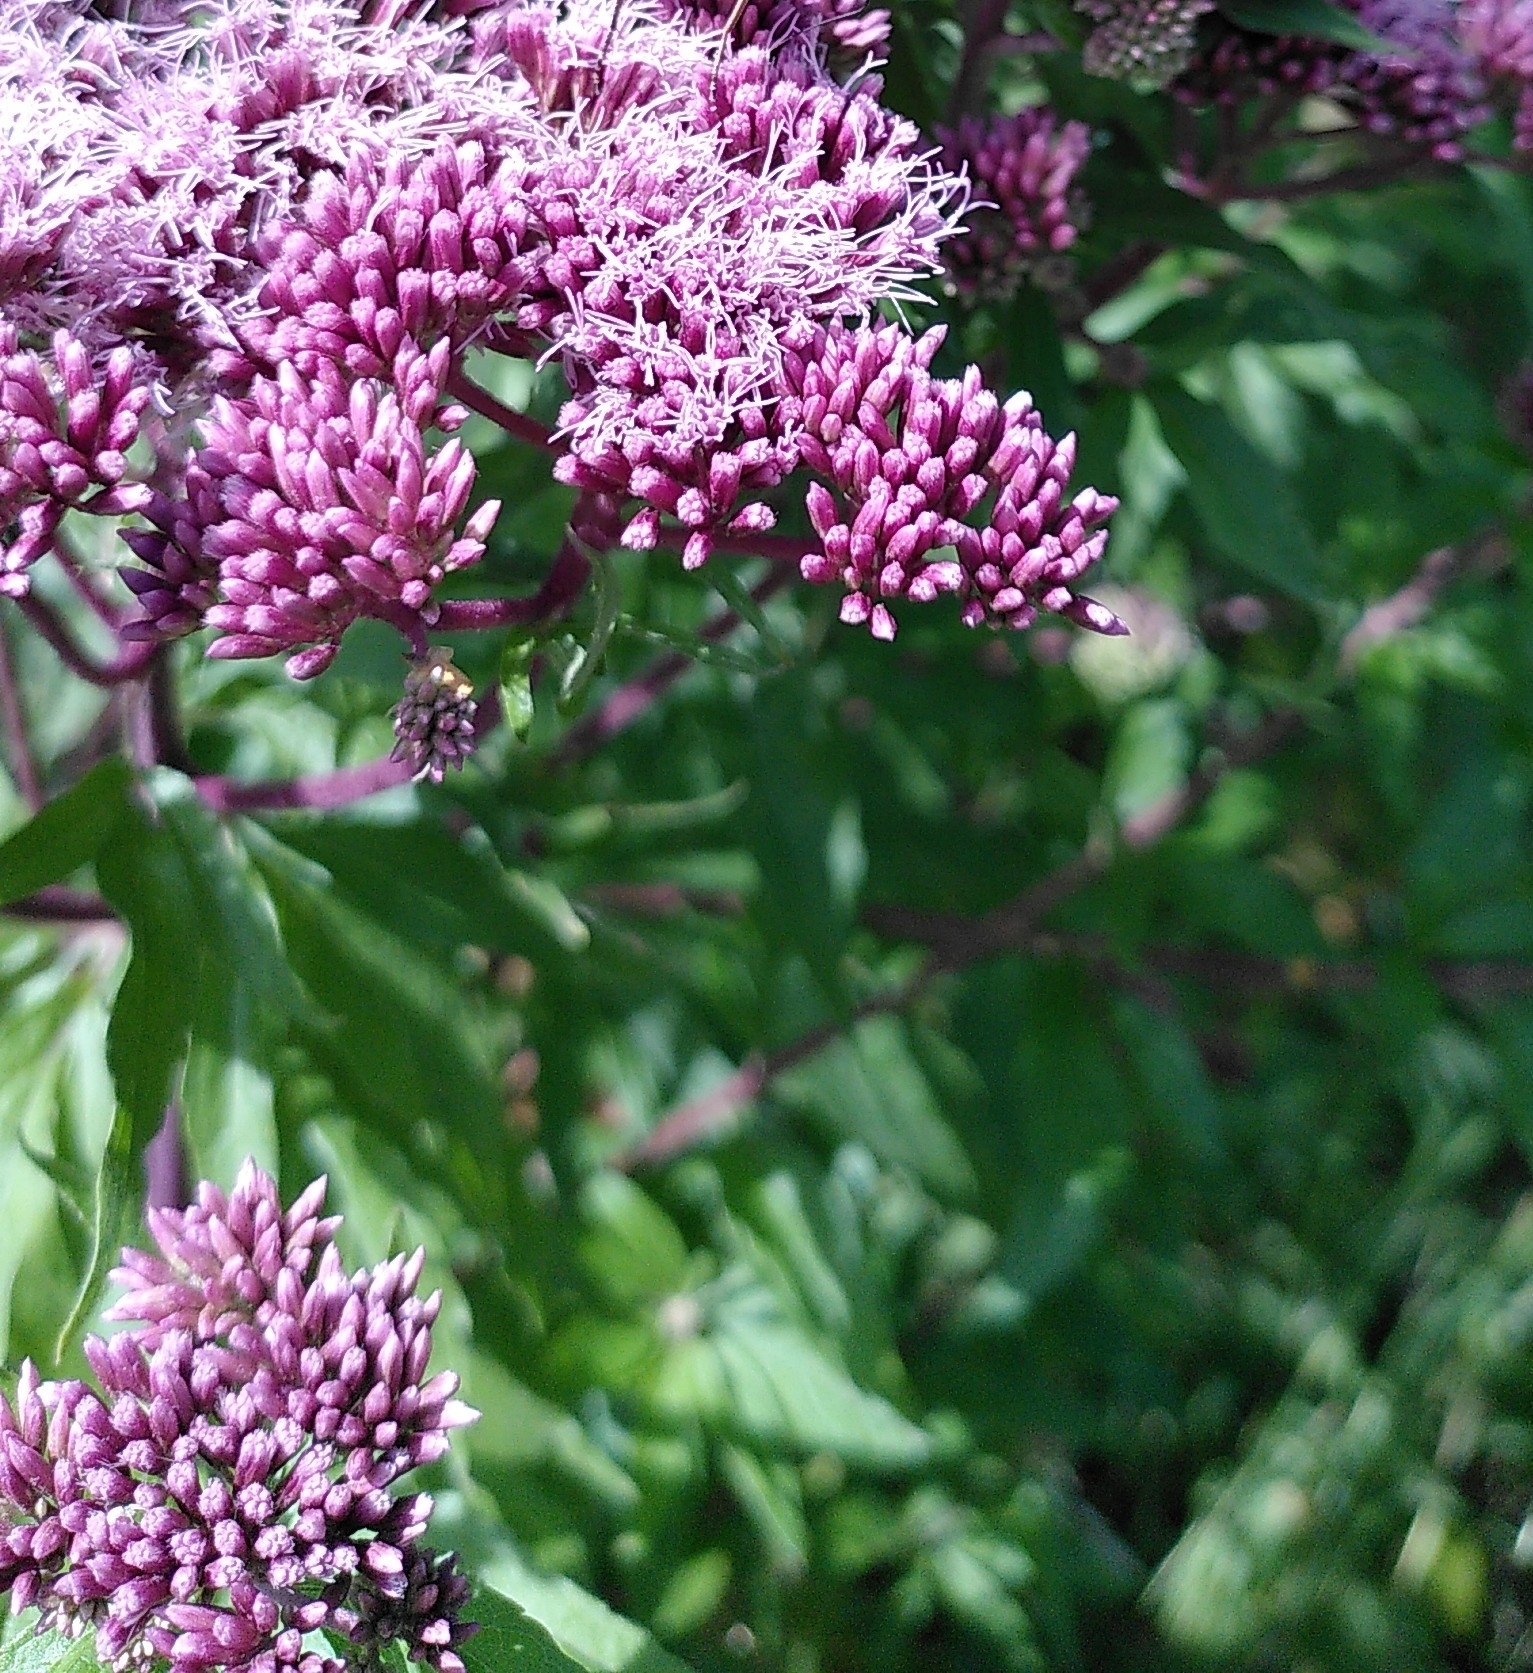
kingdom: Plantae
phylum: Tracheophyta
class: Magnoliopsida
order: Asterales
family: Asteraceae
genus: Eupatorium
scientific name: Eupatorium cannabinum
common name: Hemp-agrimony
